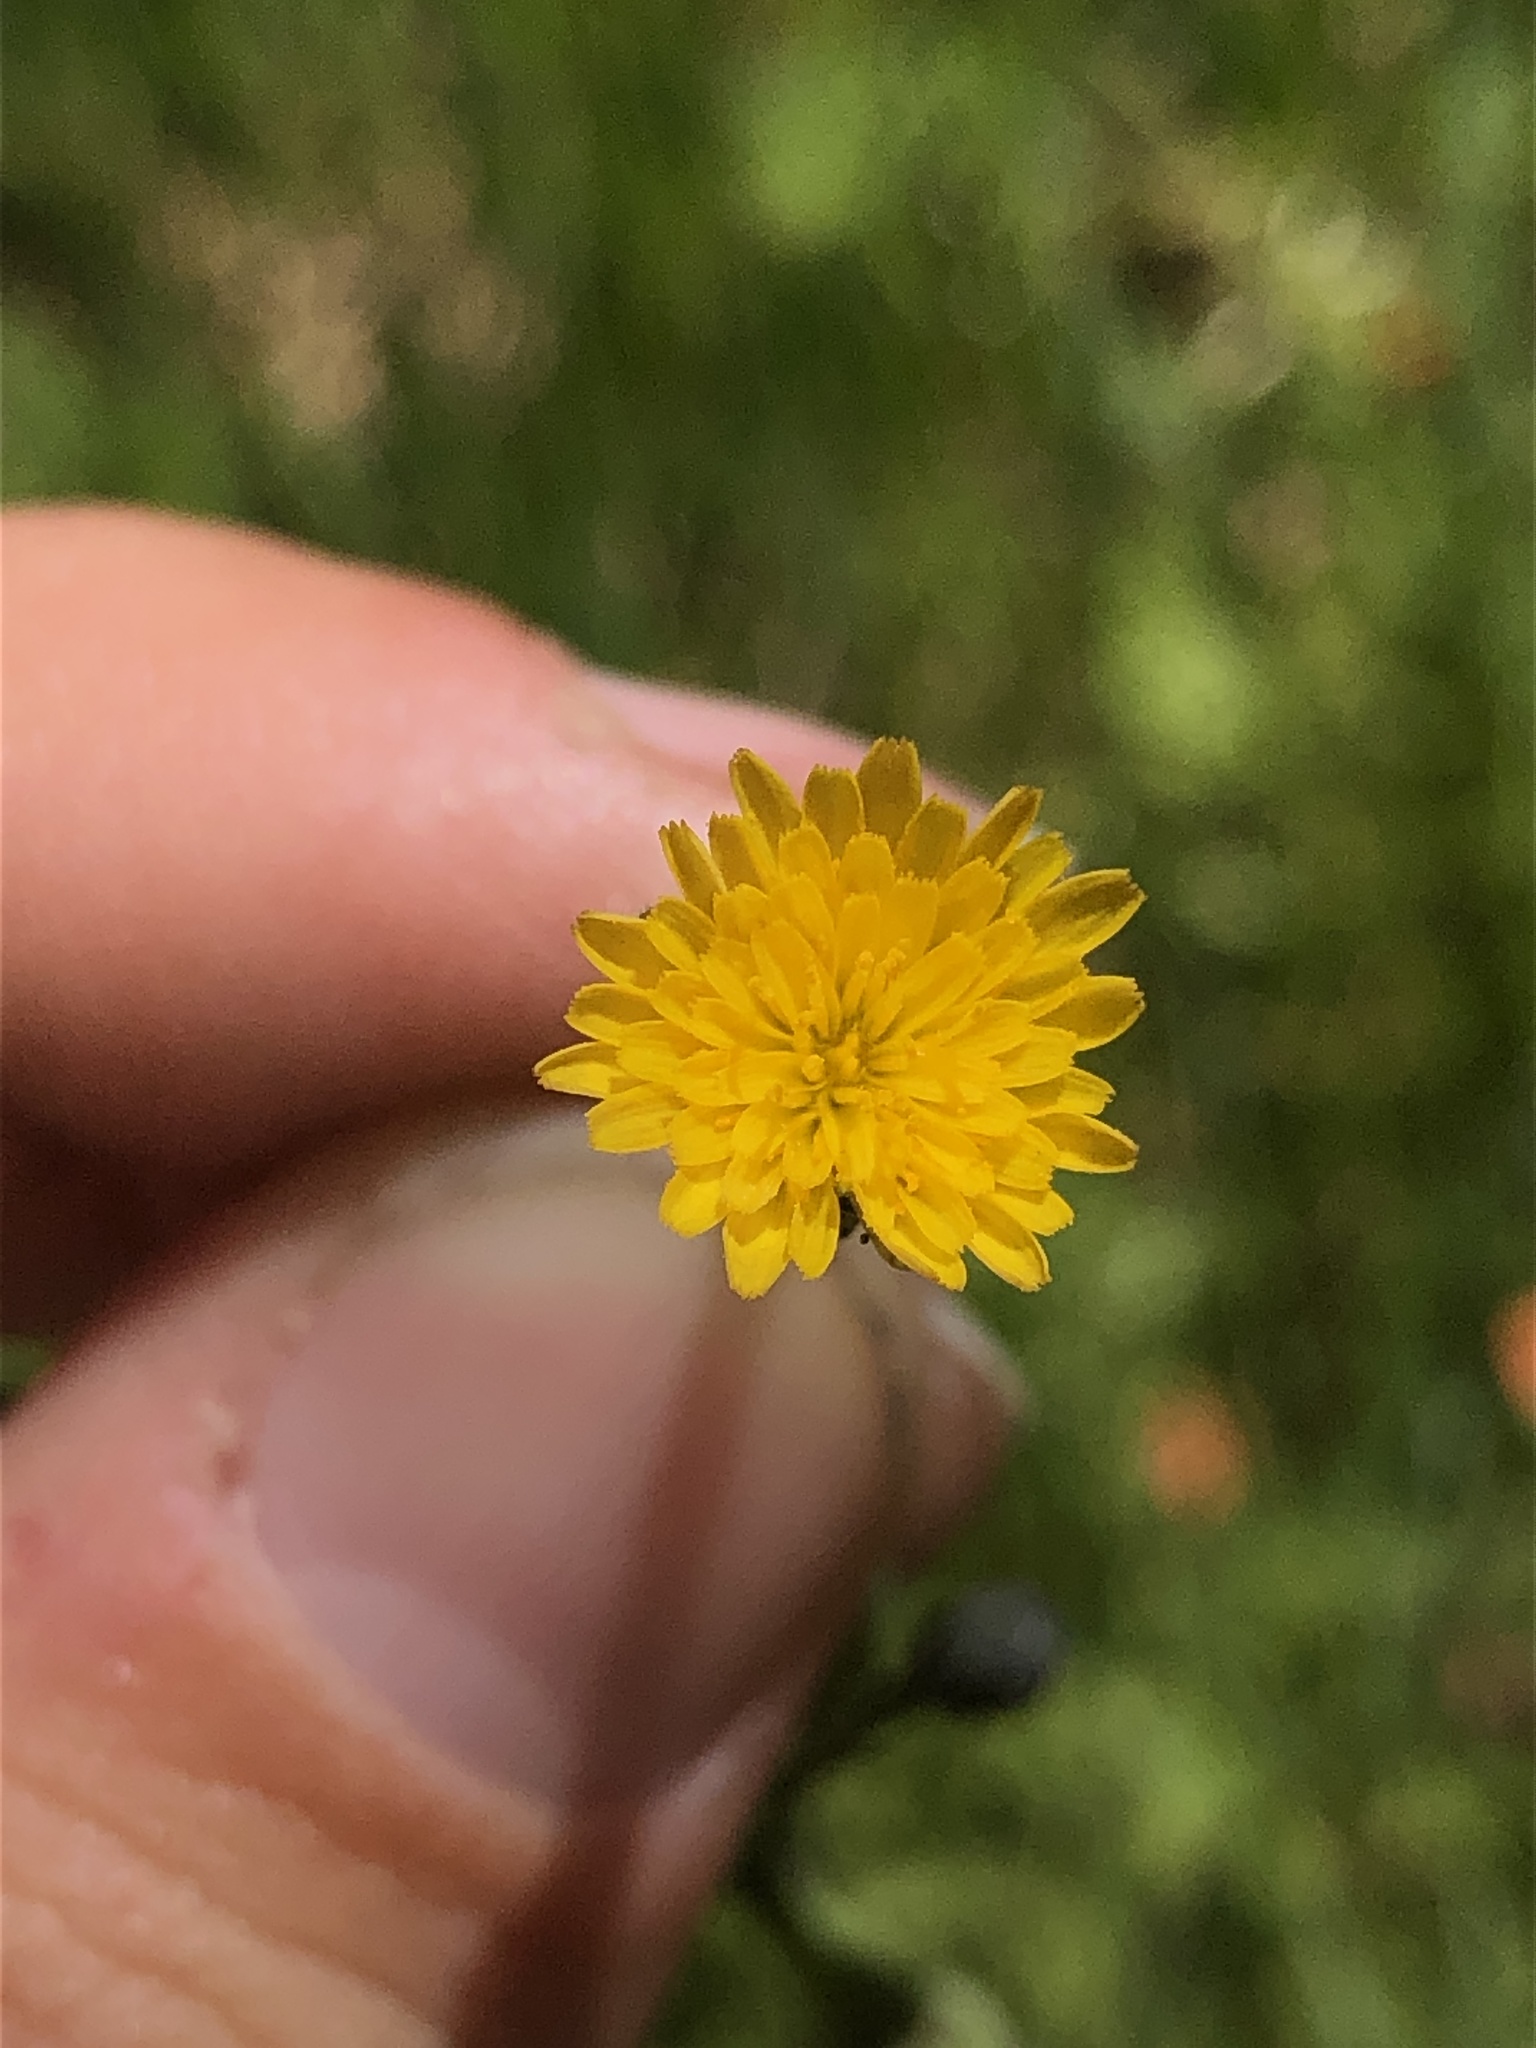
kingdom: Plantae
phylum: Tracheophyta
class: Magnoliopsida
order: Asterales
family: Asteraceae
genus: Hypochaeris
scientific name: Hypochaeris glabra
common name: Smooth catsear
